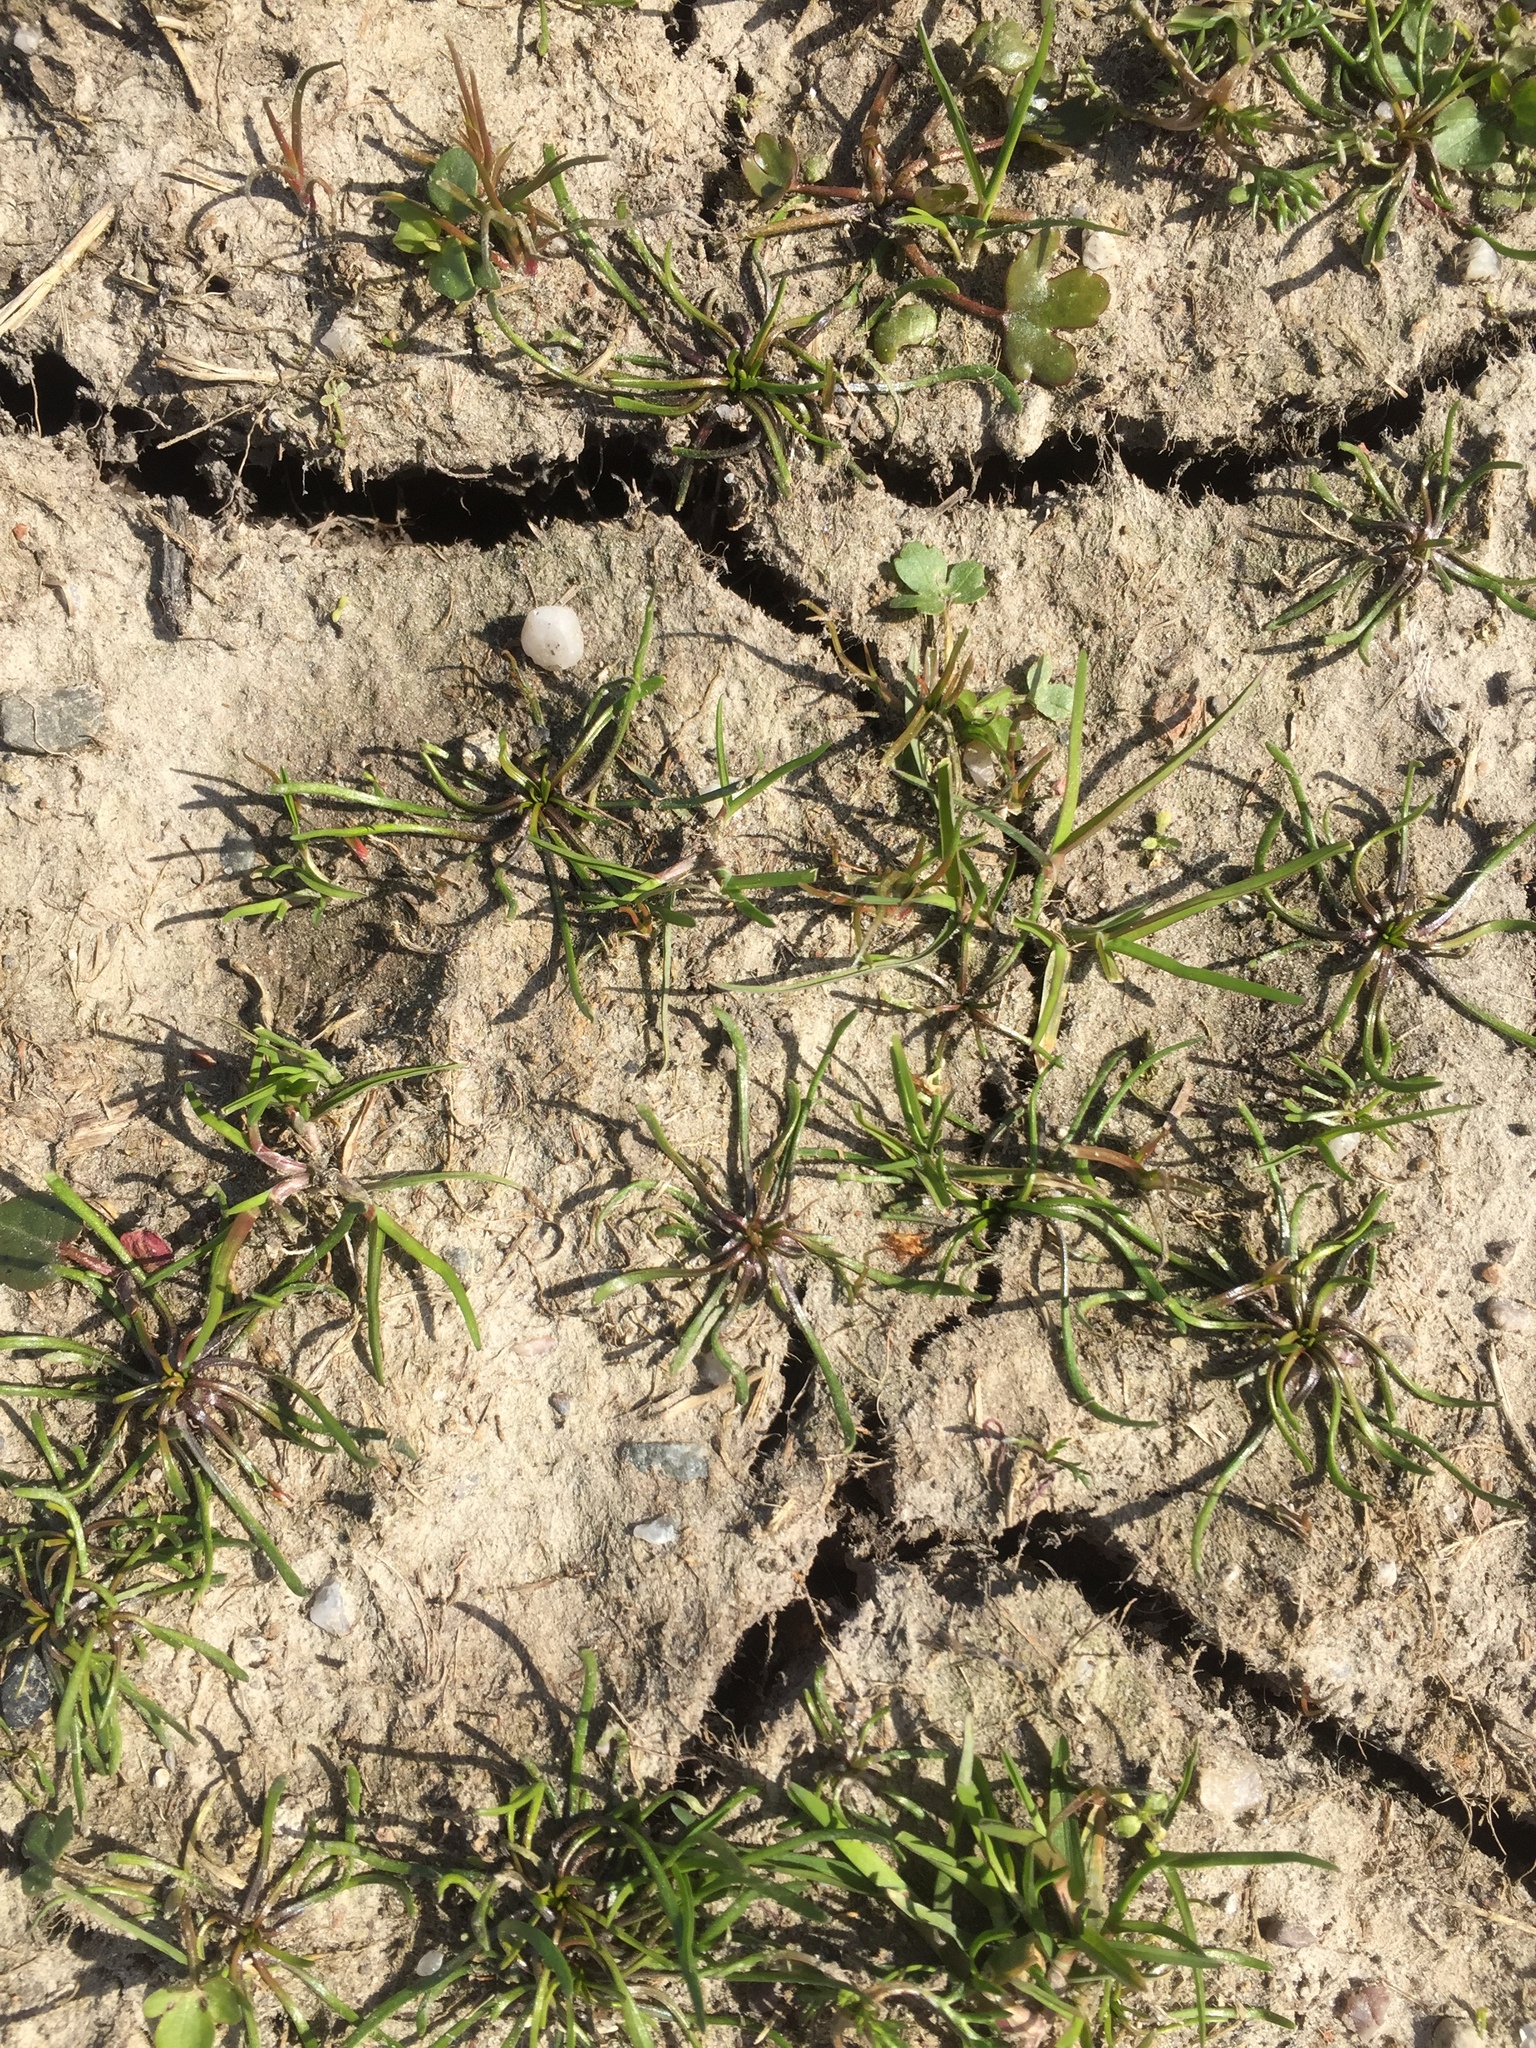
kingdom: Plantae
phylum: Tracheophyta
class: Magnoliopsida
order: Ranunculales
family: Ranunculaceae
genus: Myosurus
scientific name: Myosurus minimus
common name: Mousetail
